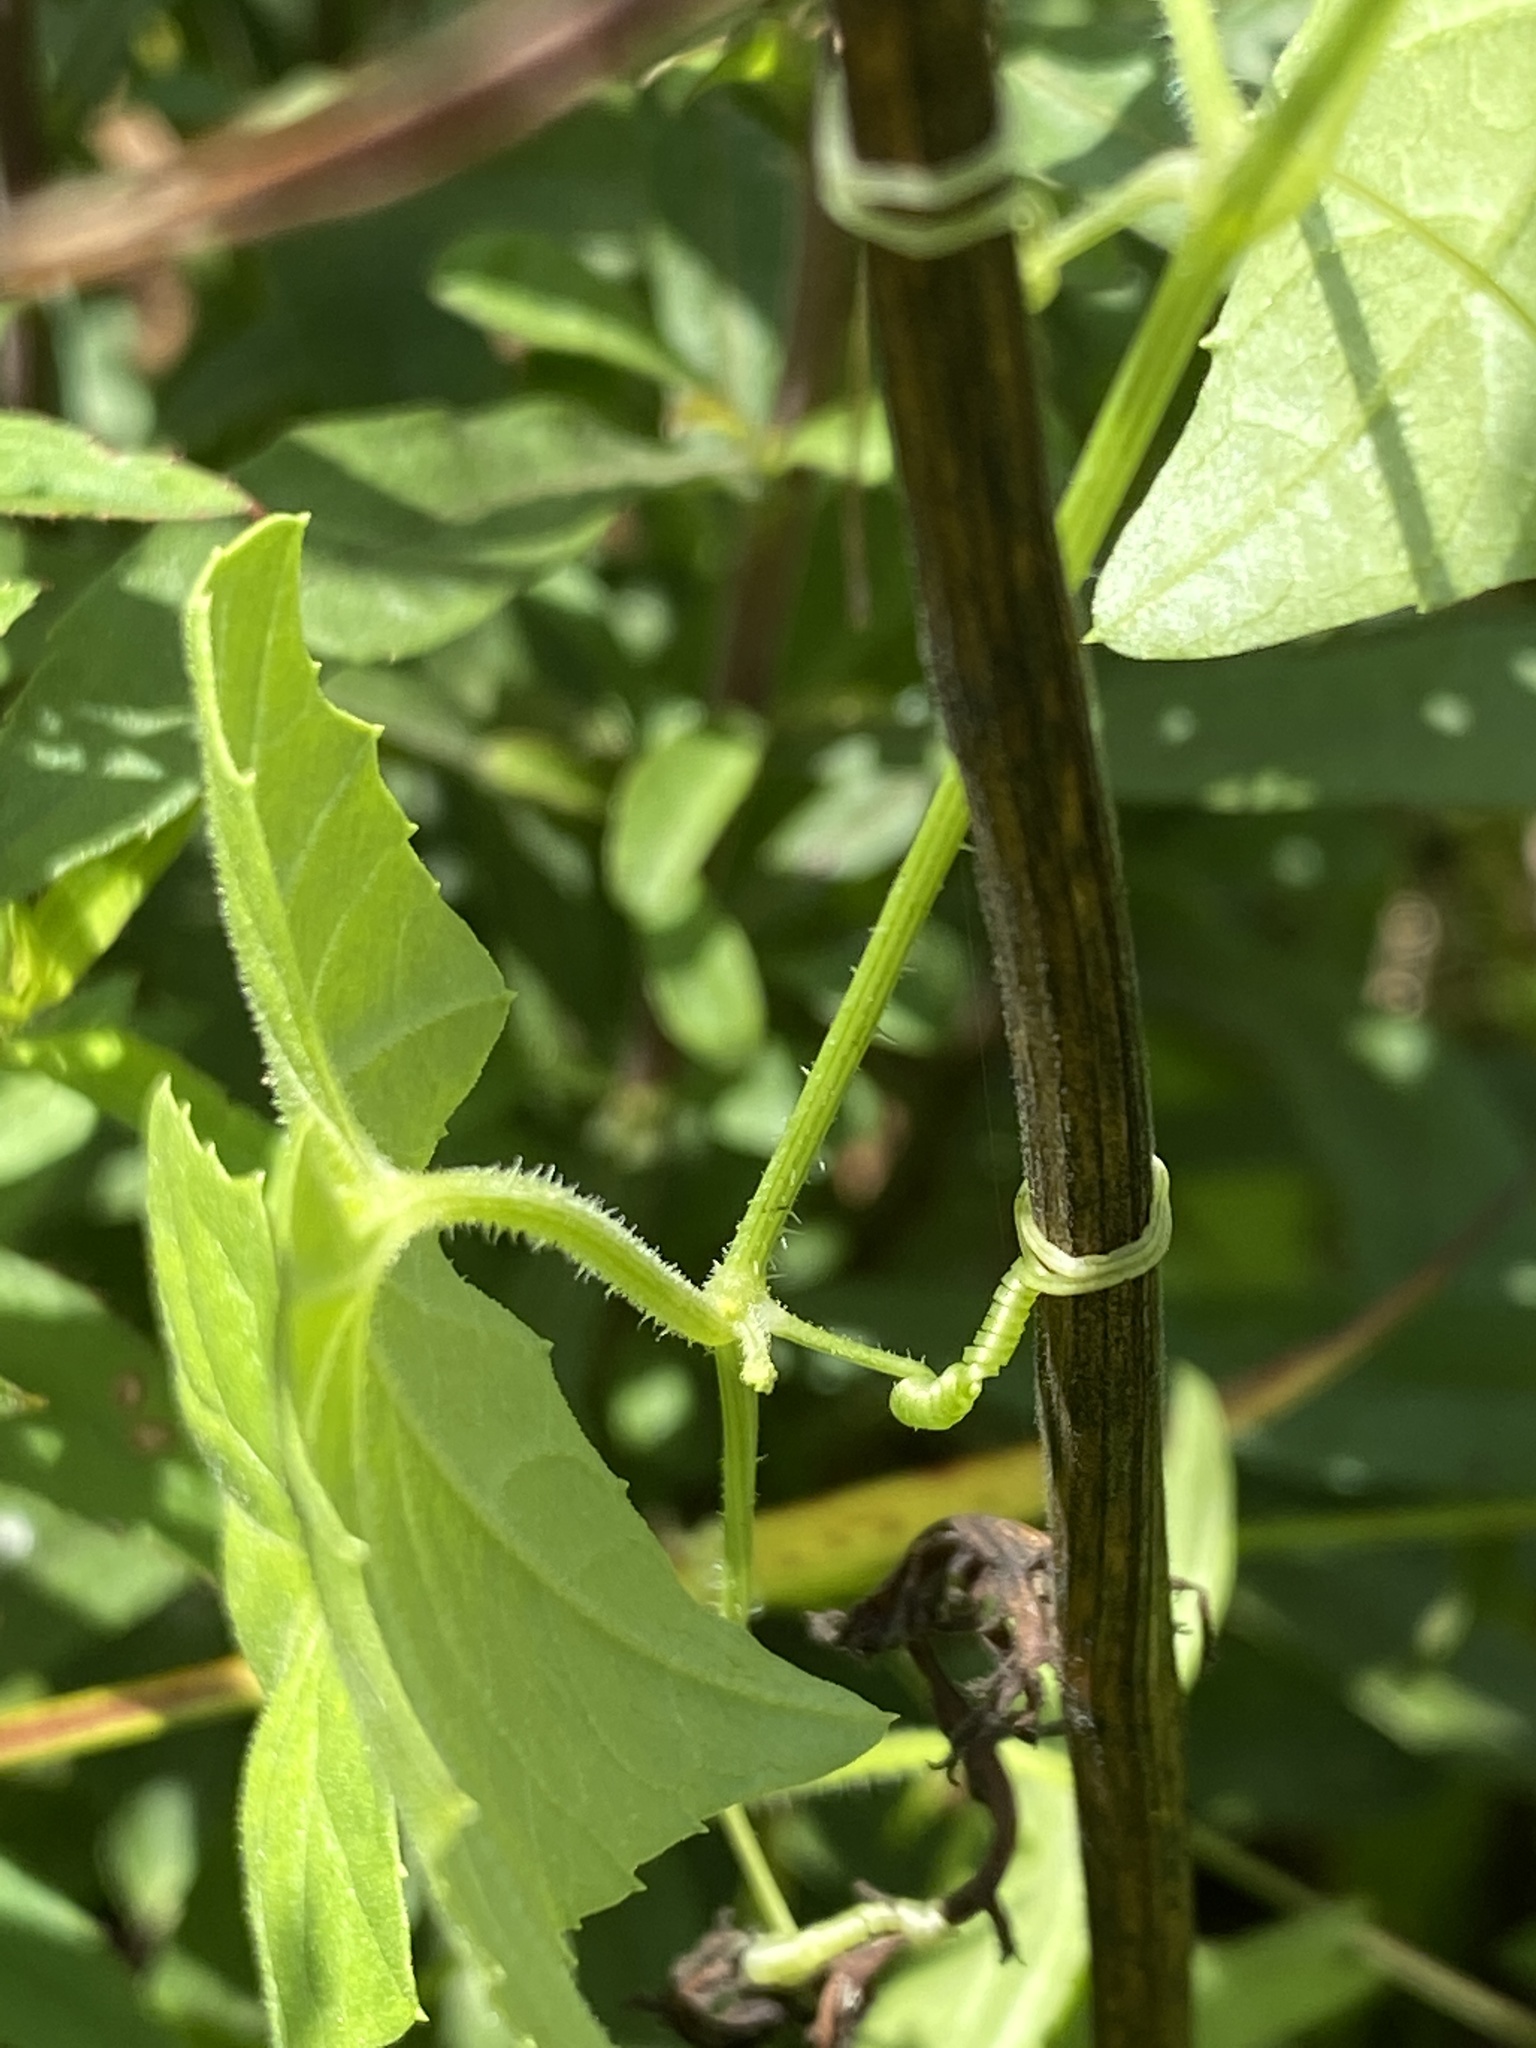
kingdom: Plantae
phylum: Tracheophyta
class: Magnoliopsida
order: Cucurbitales
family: Cucurbitaceae
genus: Melothria
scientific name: Melothria pendula
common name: Creeping-cucumber
